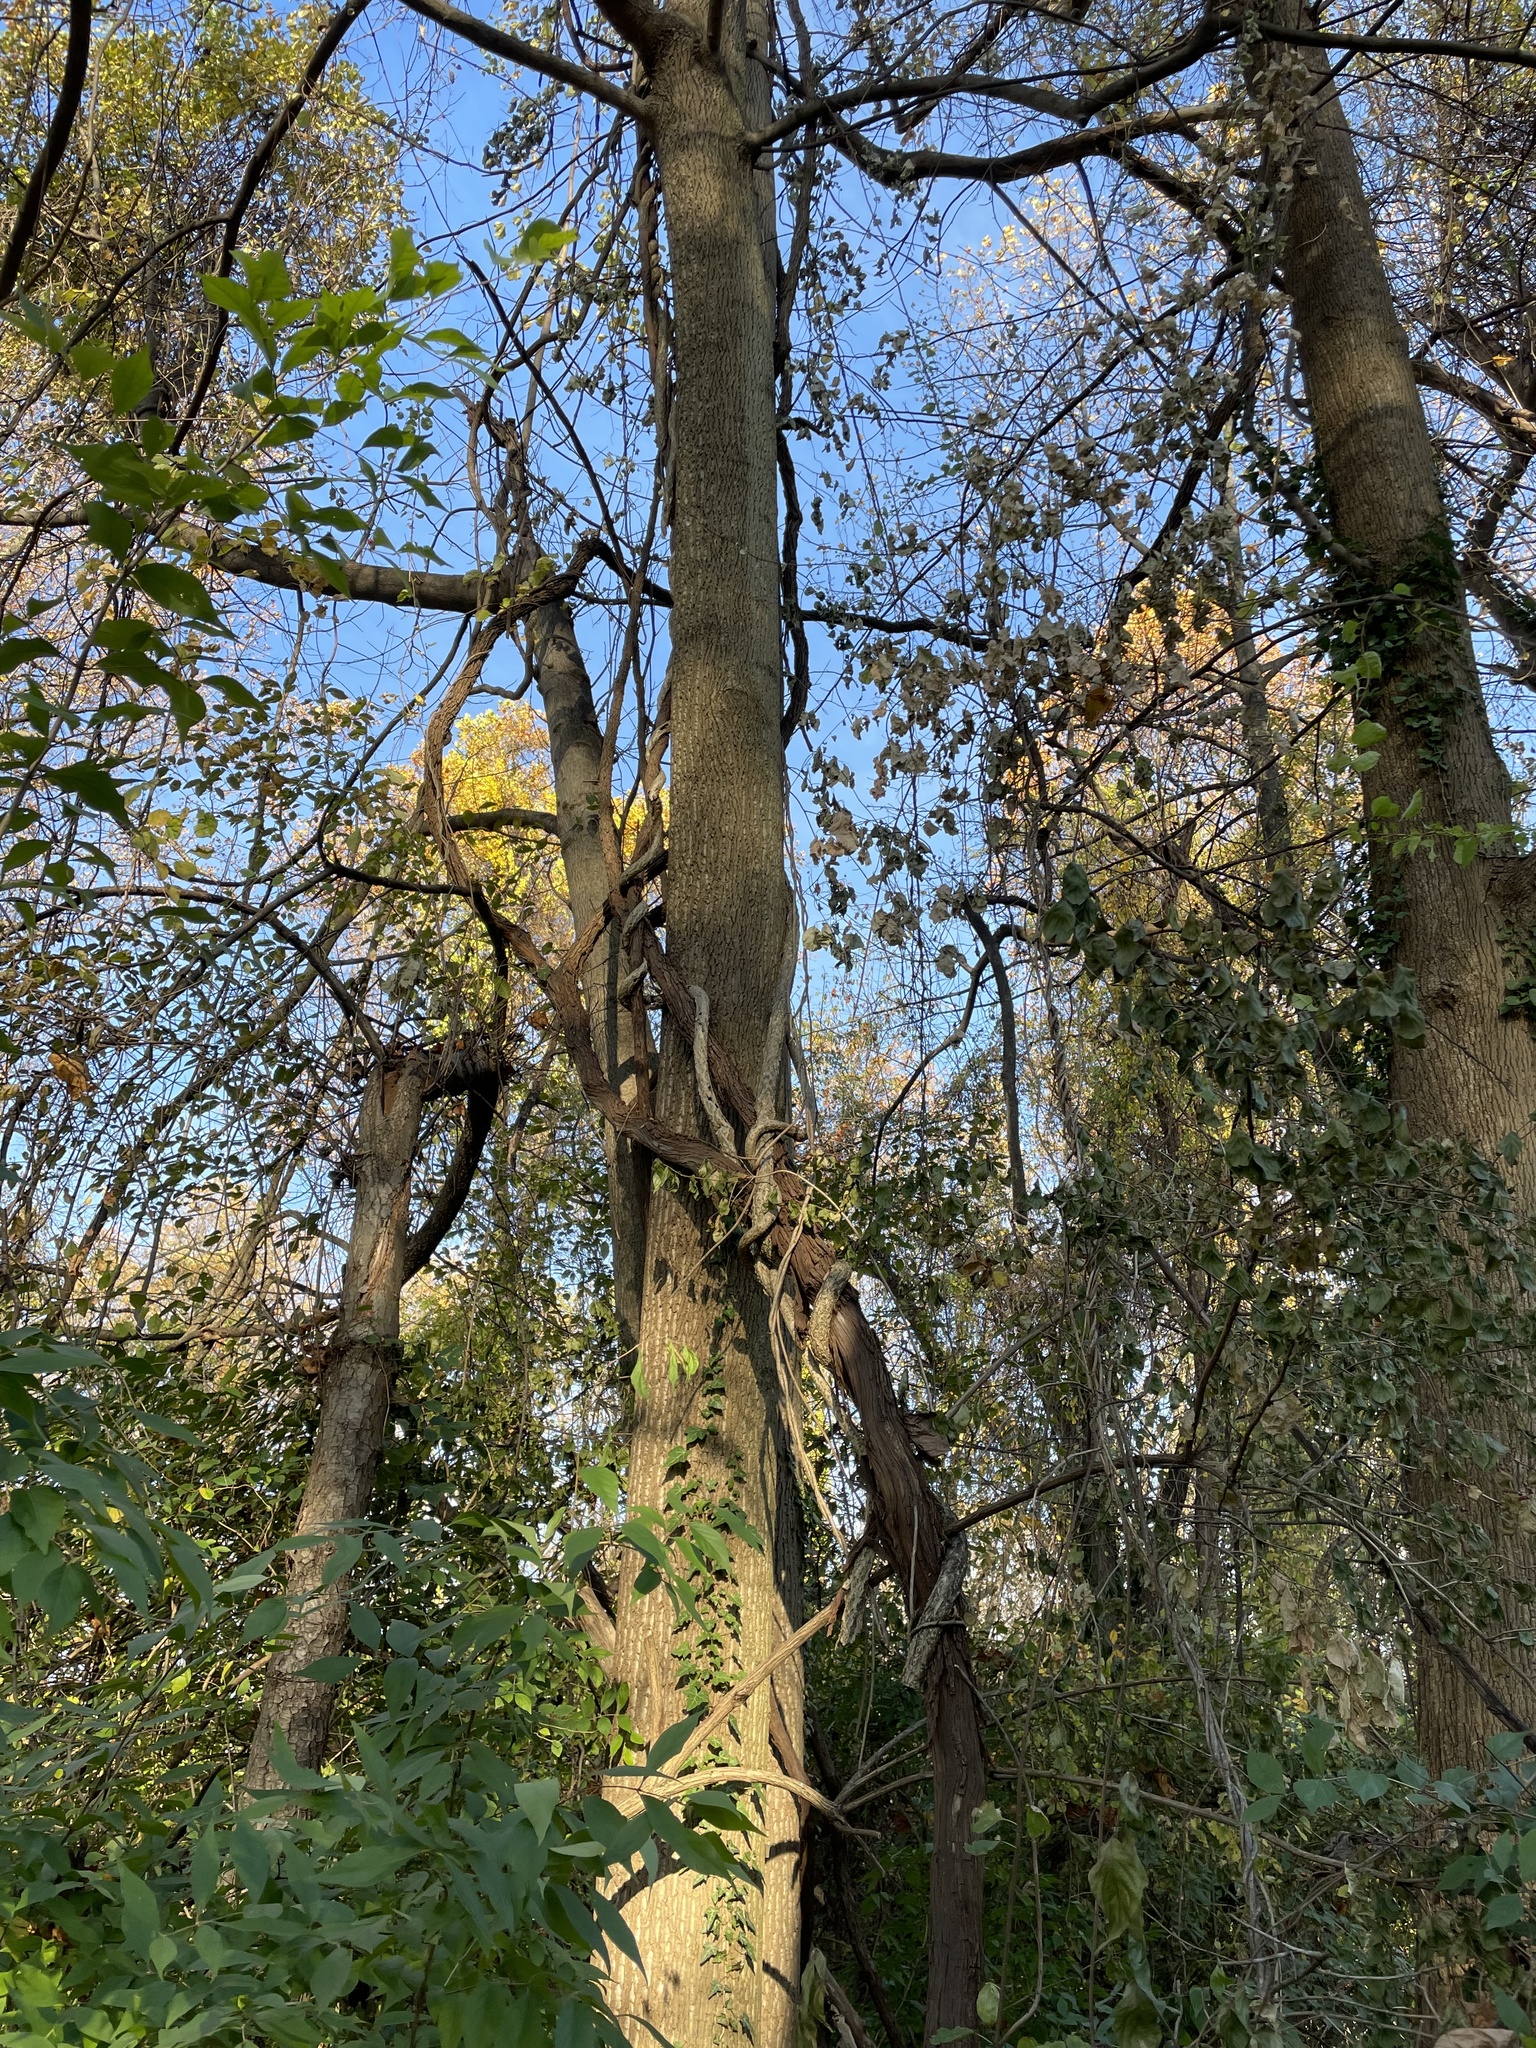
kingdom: Plantae
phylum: Tracheophyta
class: Magnoliopsida
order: Vitales
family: Vitaceae
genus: Vitis
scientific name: Vitis
